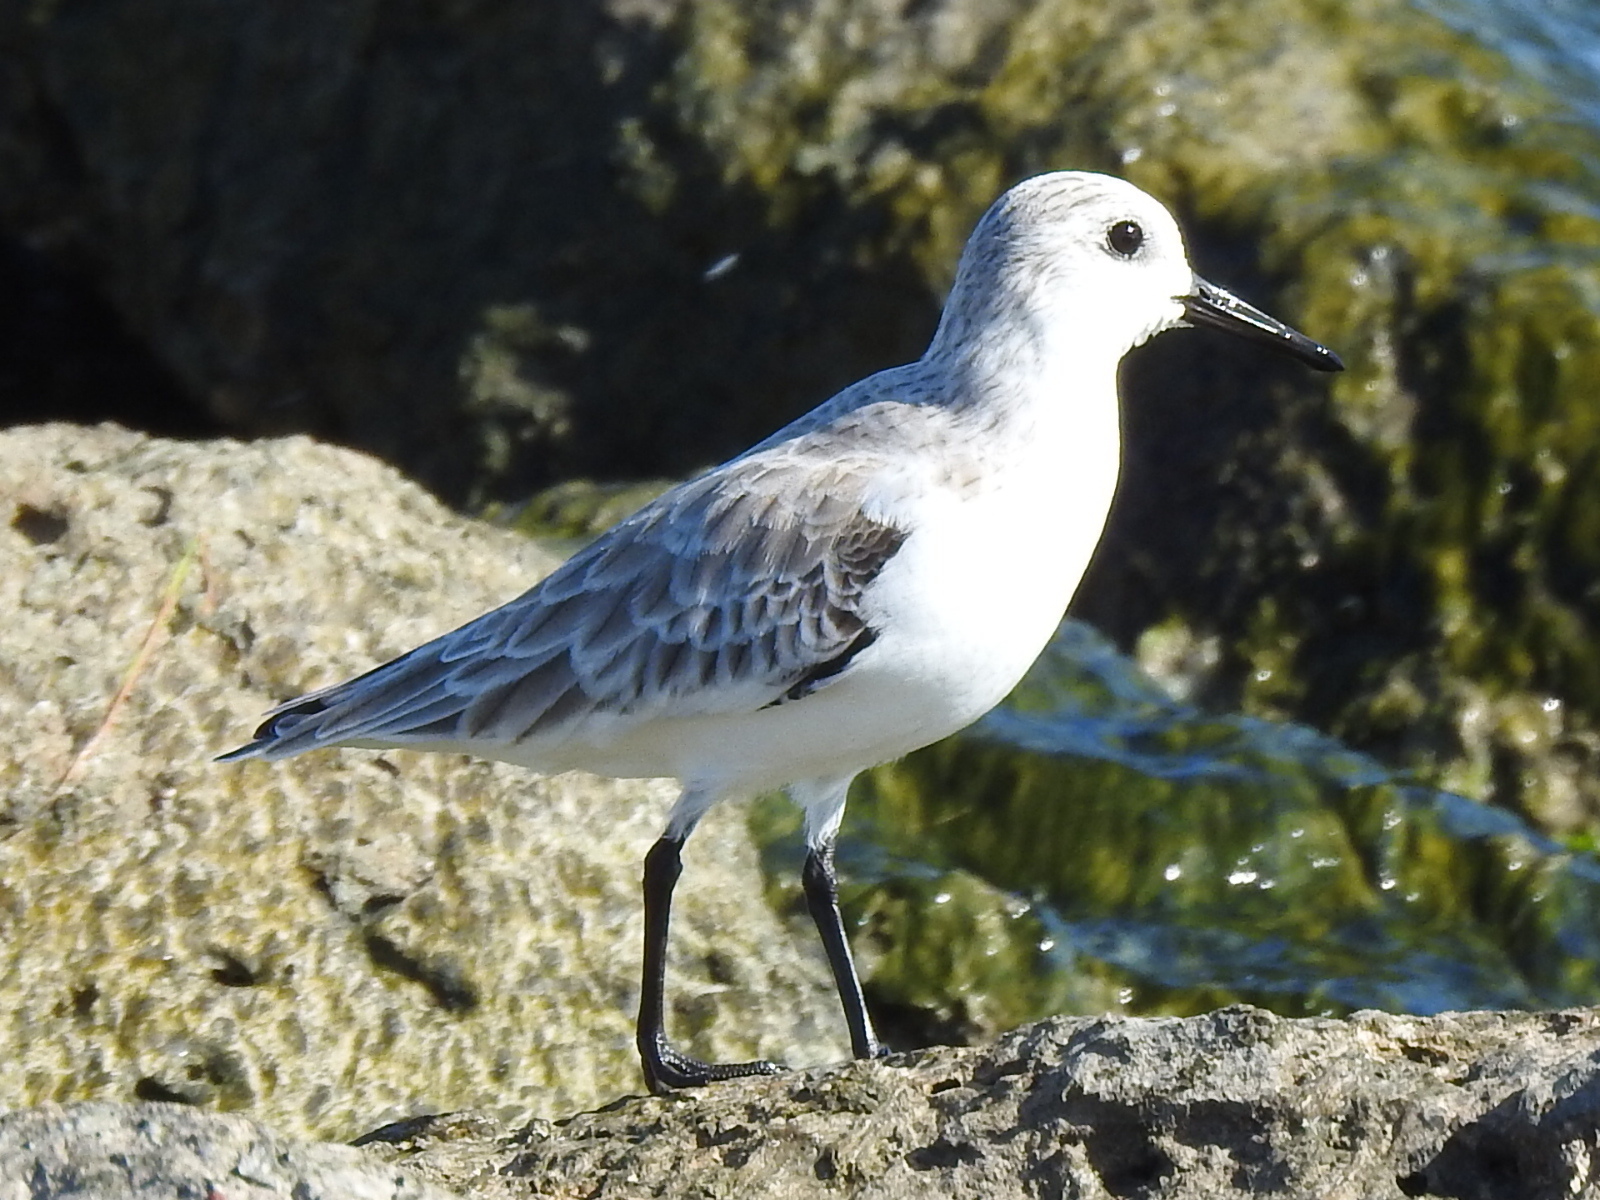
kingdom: Animalia
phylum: Chordata
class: Aves
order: Charadriiformes
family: Scolopacidae
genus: Calidris
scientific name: Calidris alba
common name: Sanderling
